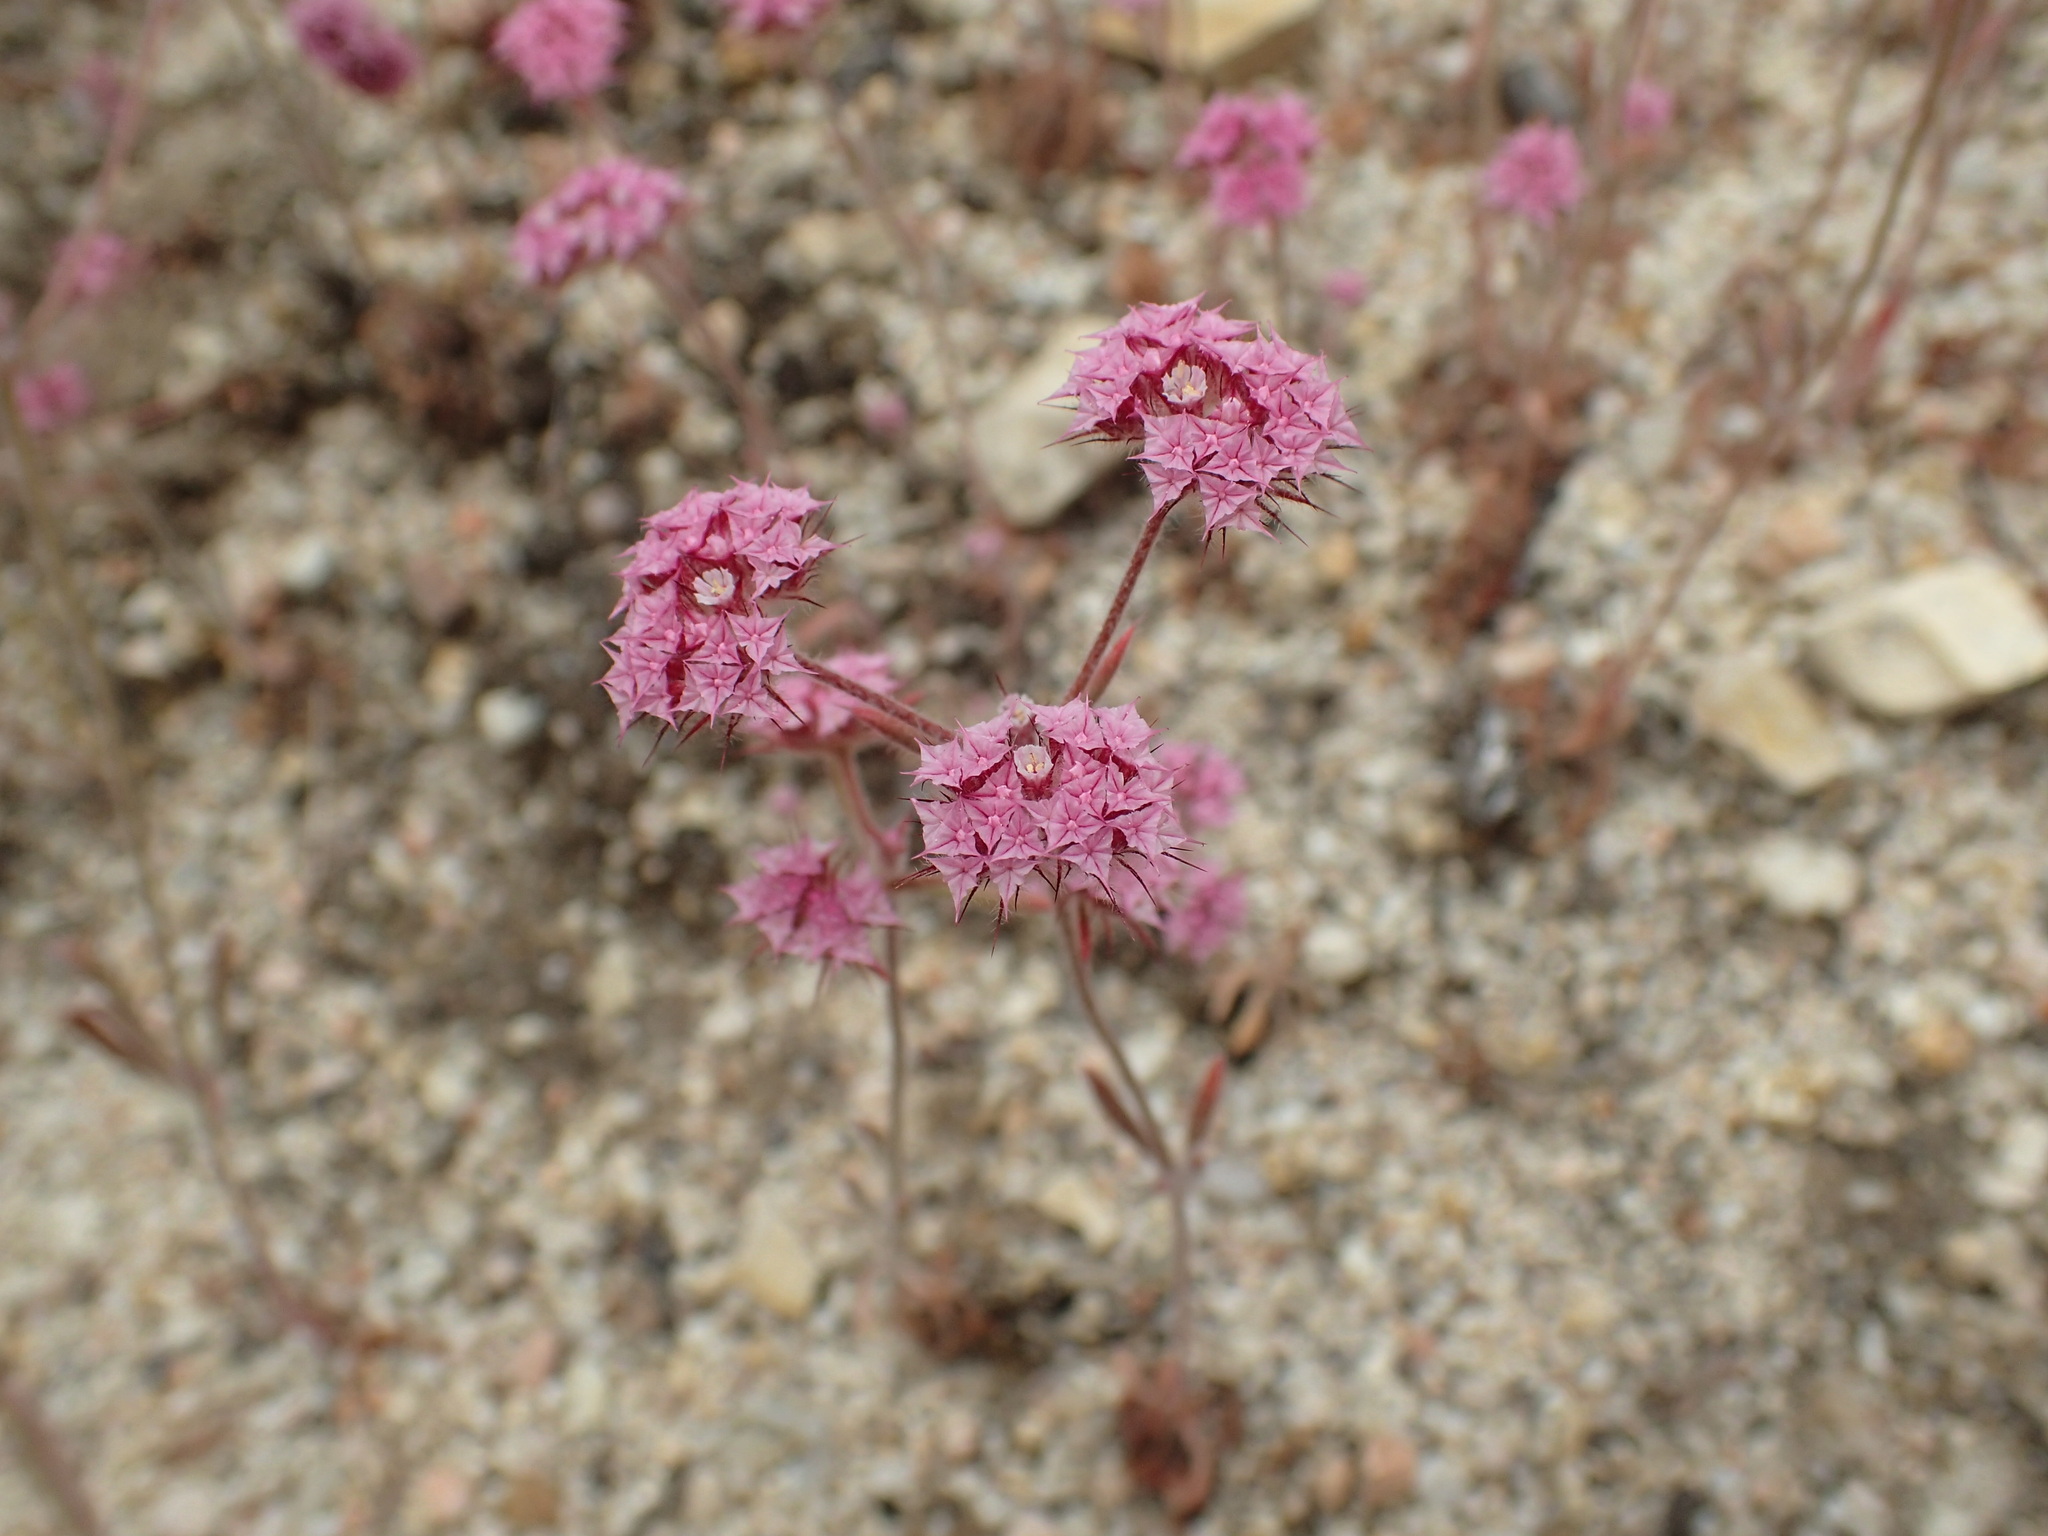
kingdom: Plantae
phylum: Tracheophyta
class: Magnoliopsida
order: Caryophyllales
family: Polygonaceae
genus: Chorizanthe
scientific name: Chorizanthe douglasii
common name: Douglas's spineflower
